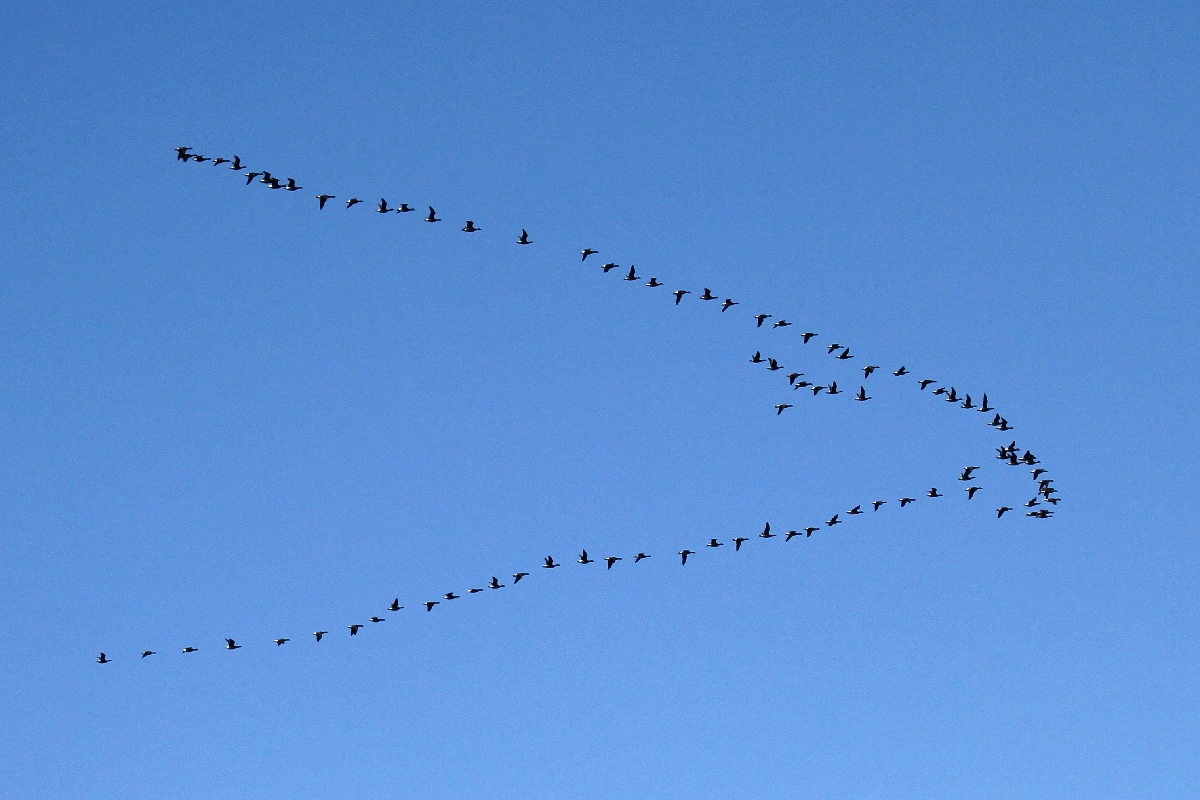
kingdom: Animalia
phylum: Chordata
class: Aves
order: Anseriformes
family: Anatidae
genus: Branta
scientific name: Branta canadensis
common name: Canada goose
